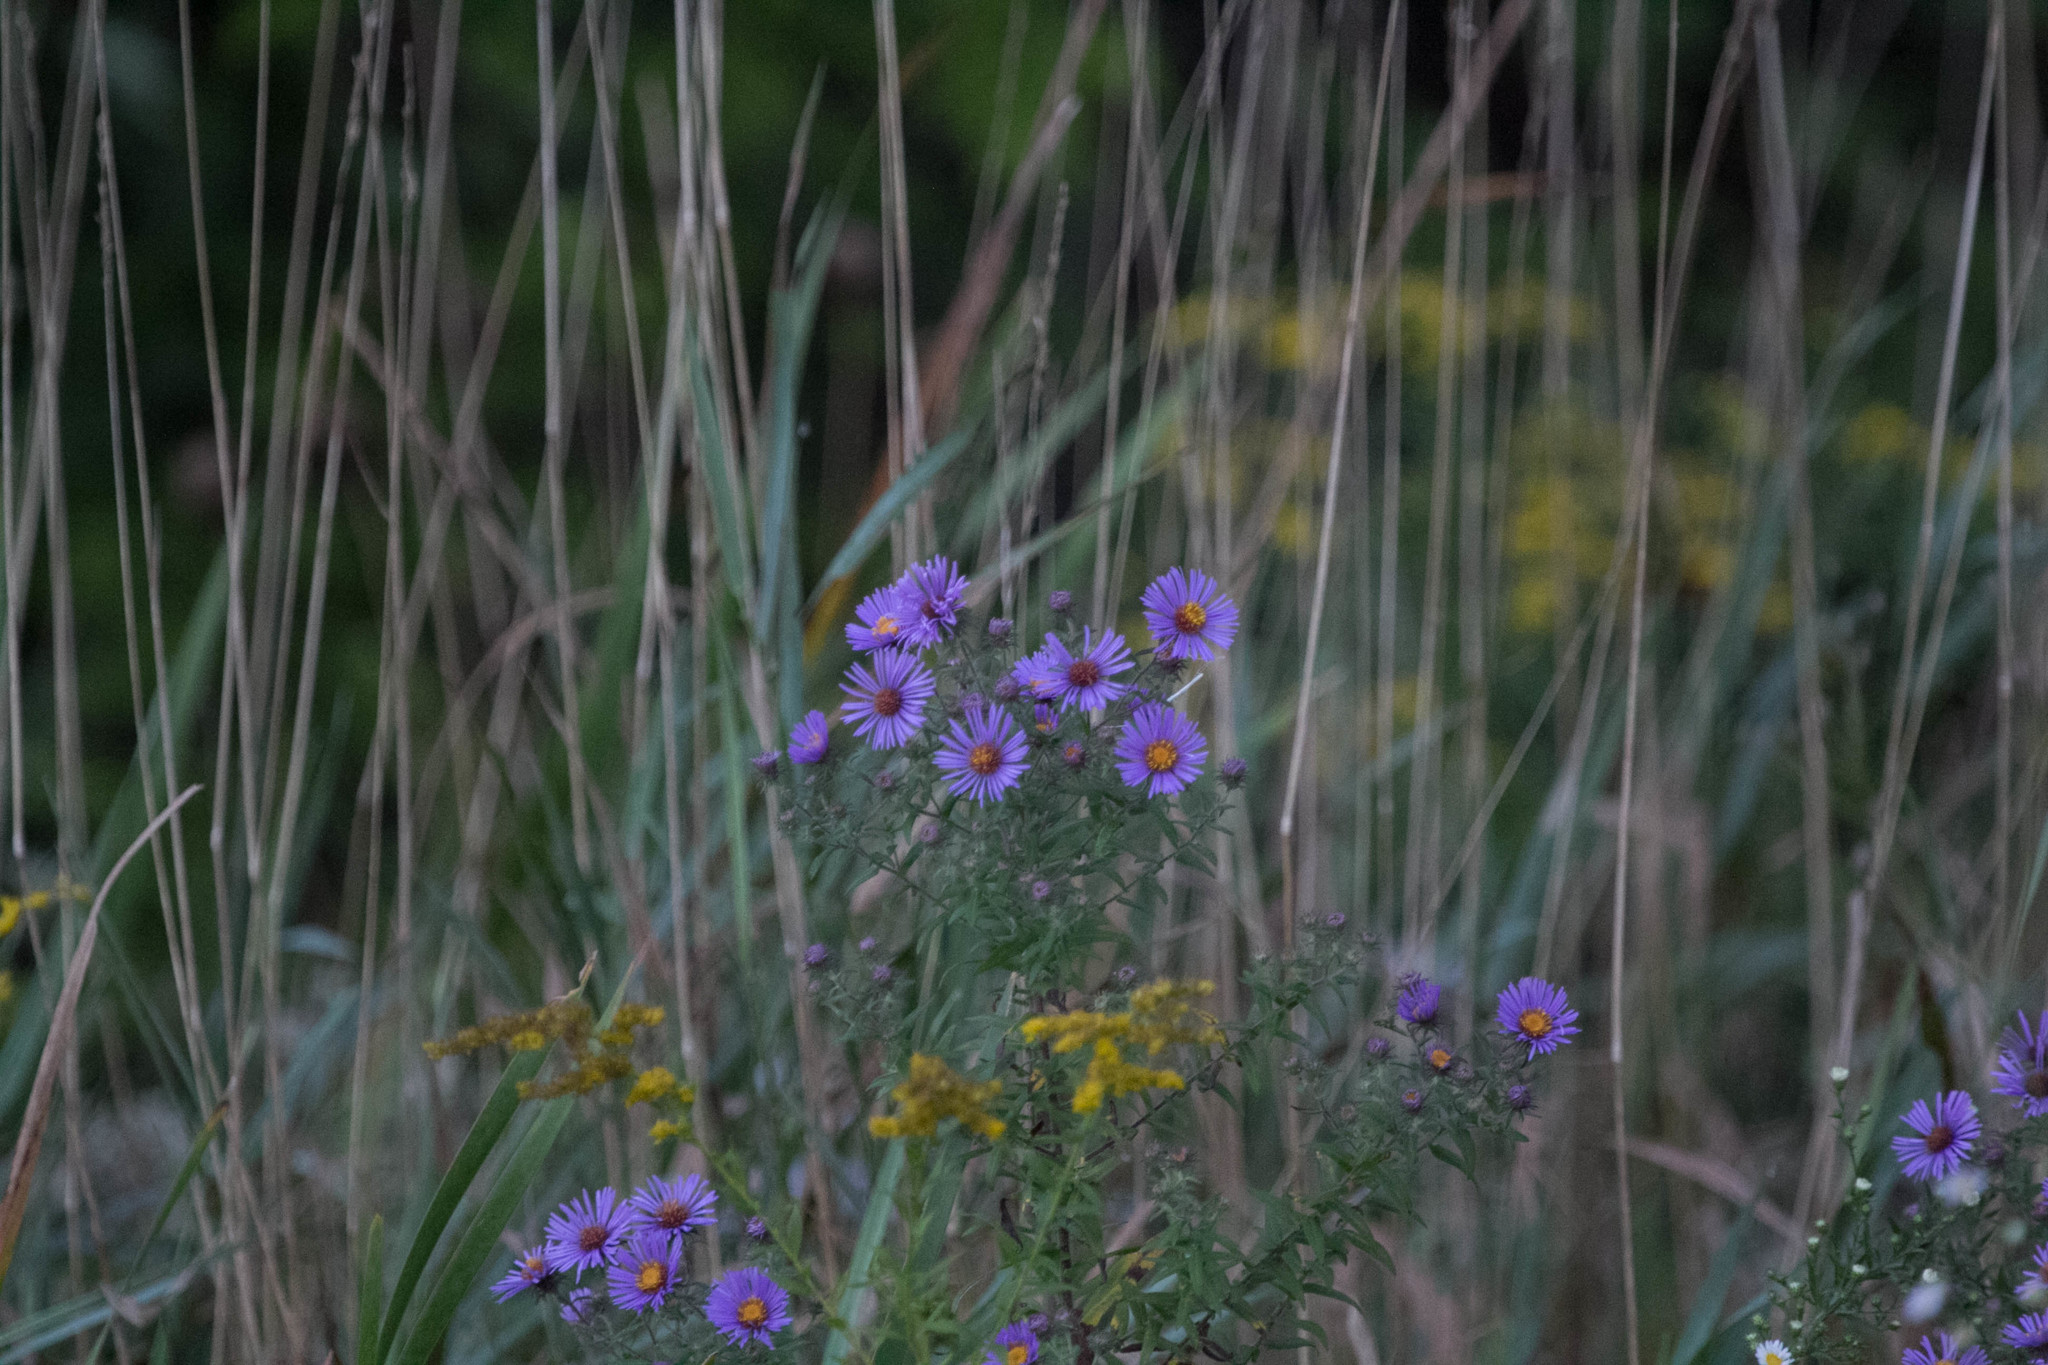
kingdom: Plantae
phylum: Tracheophyta
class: Magnoliopsida
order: Asterales
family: Asteraceae
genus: Symphyotrichum
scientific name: Symphyotrichum novae-angliae
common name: Michaelmas daisy
